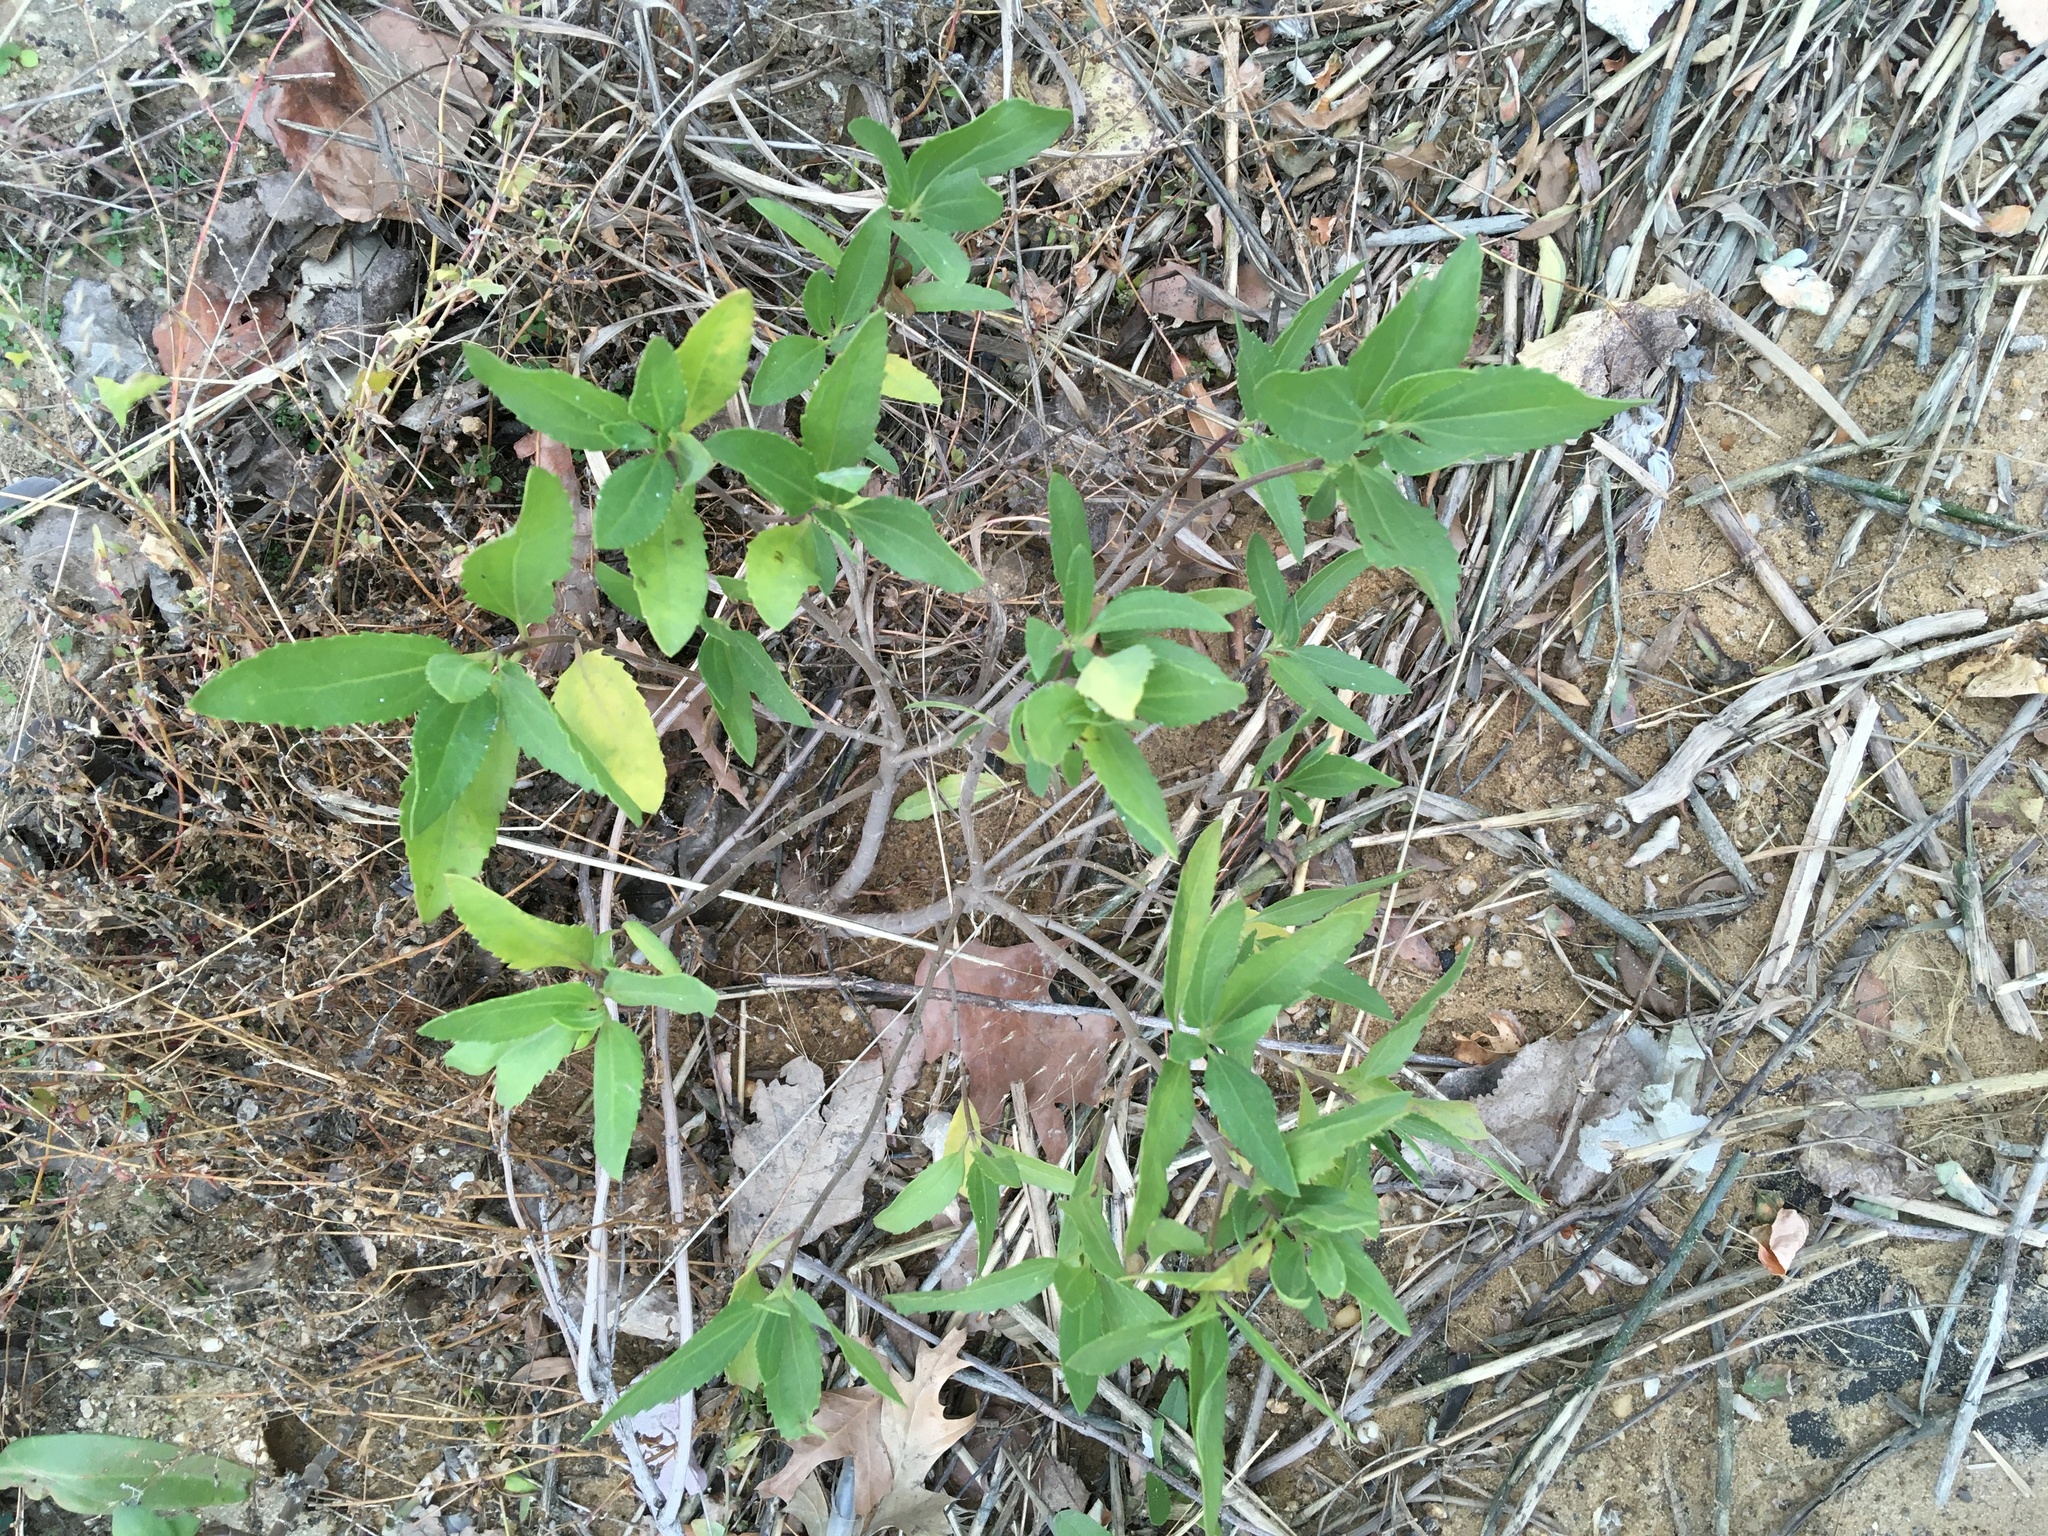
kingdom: Plantae
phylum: Tracheophyta
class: Magnoliopsida
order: Asterales
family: Asteraceae
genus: Iva
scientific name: Iva frutescens
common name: Big-leaved marsh-elder
